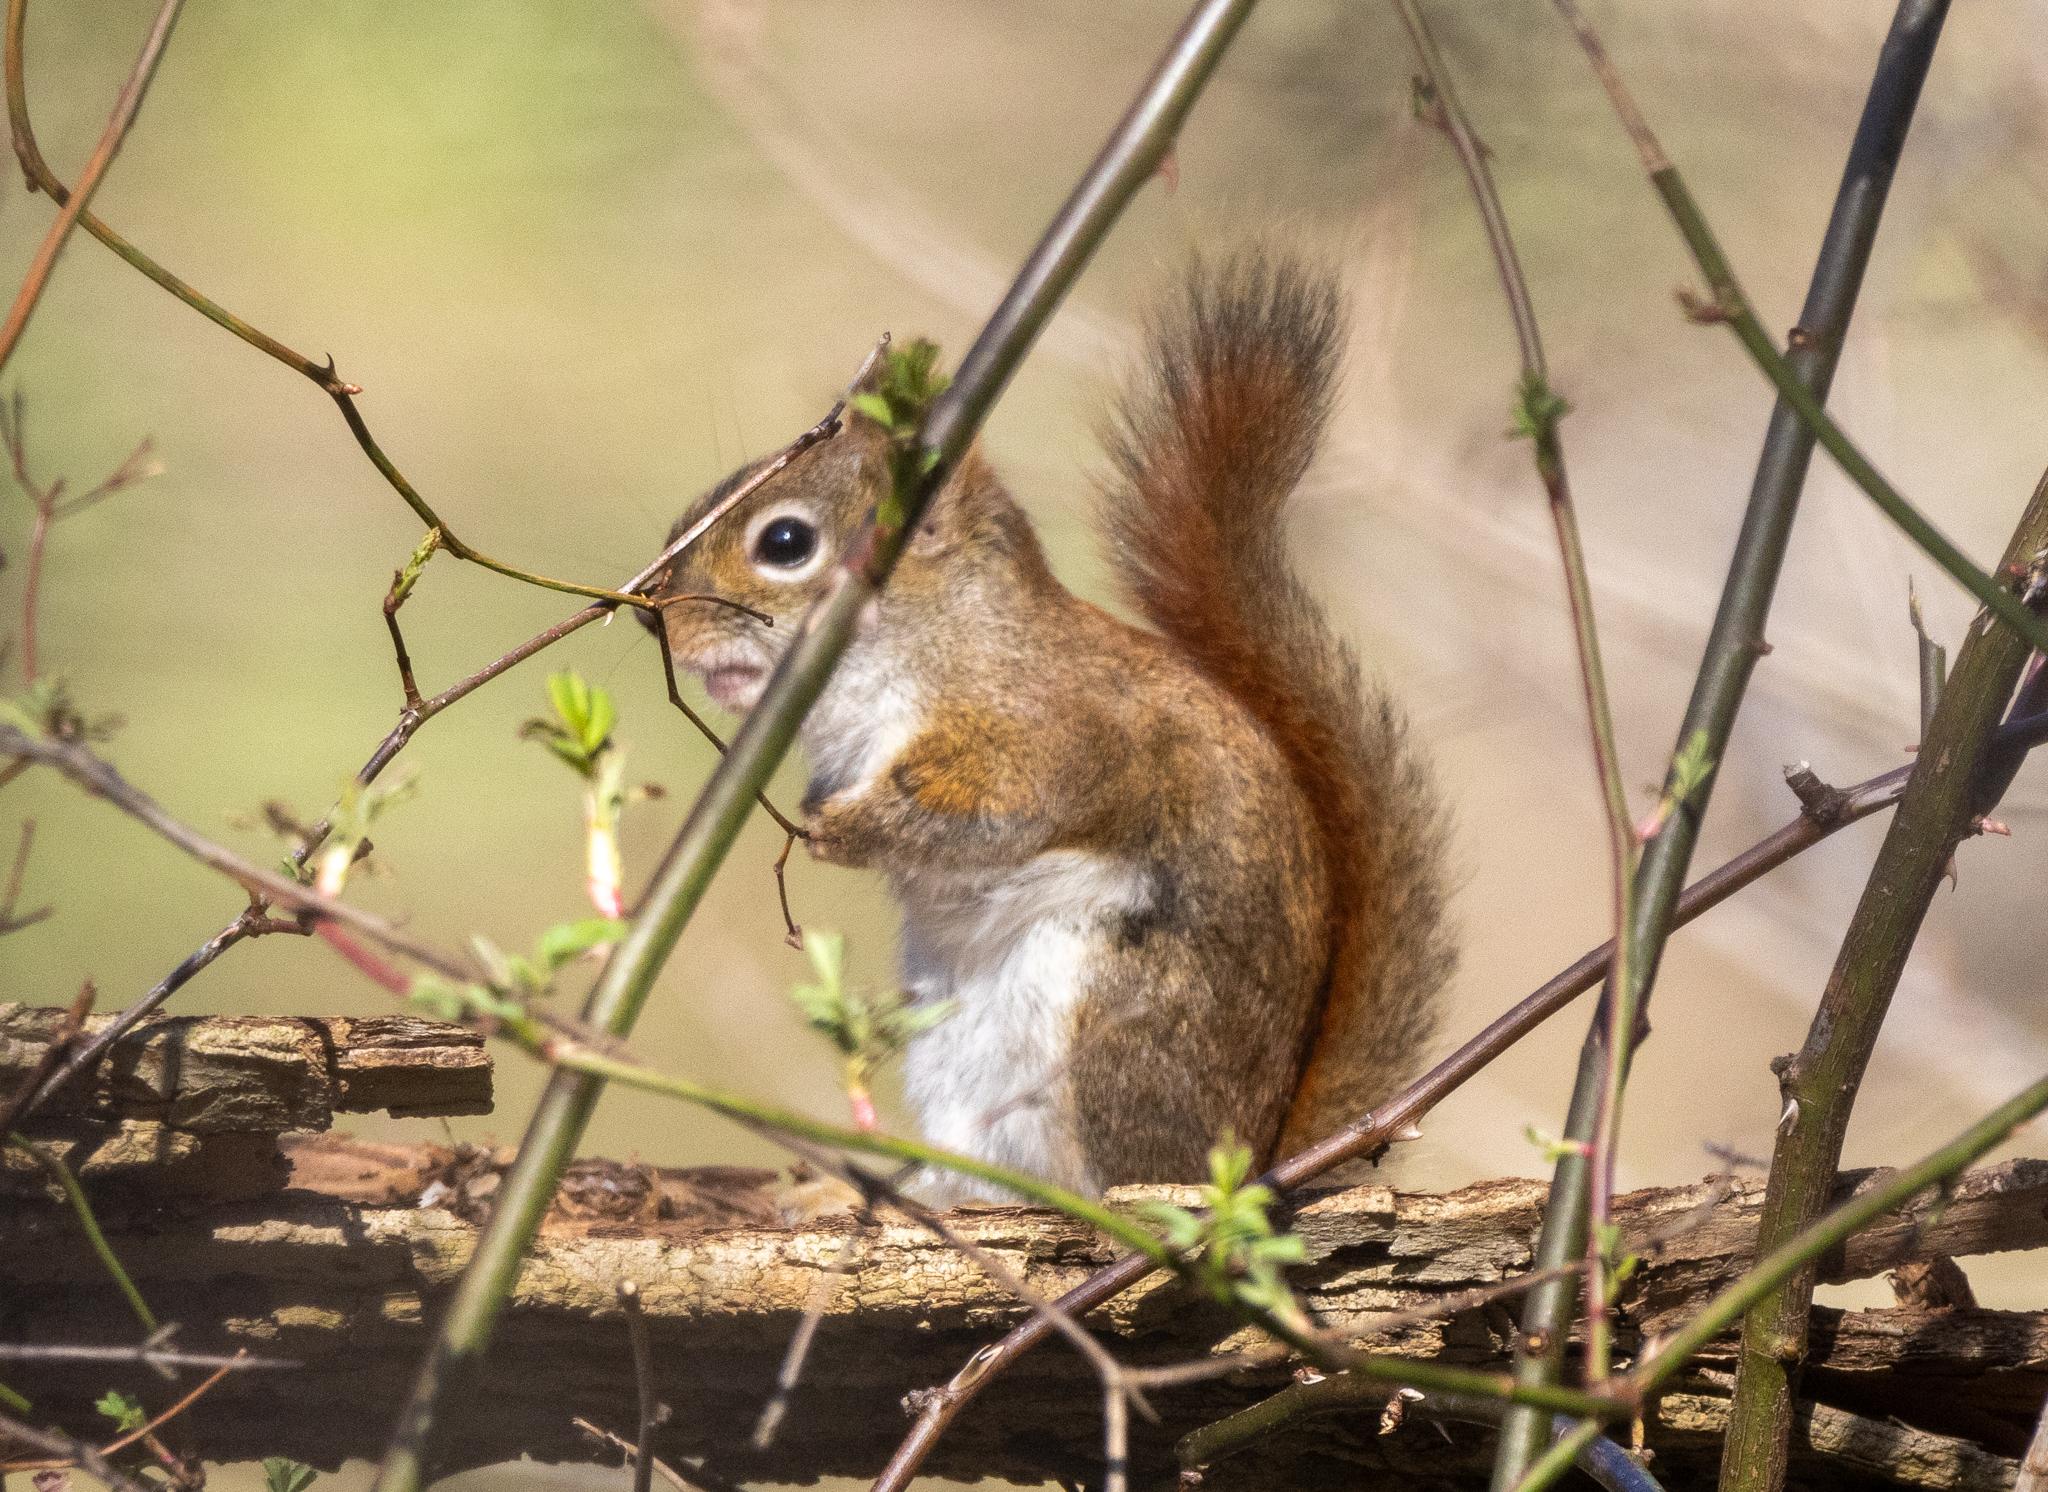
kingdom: Animalia
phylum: Chordata
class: Mammalia
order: Rodentia
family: Sciuridae
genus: Tamiasciurus
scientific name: Tamiasciurus hudsonicus
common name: Red squirrel
